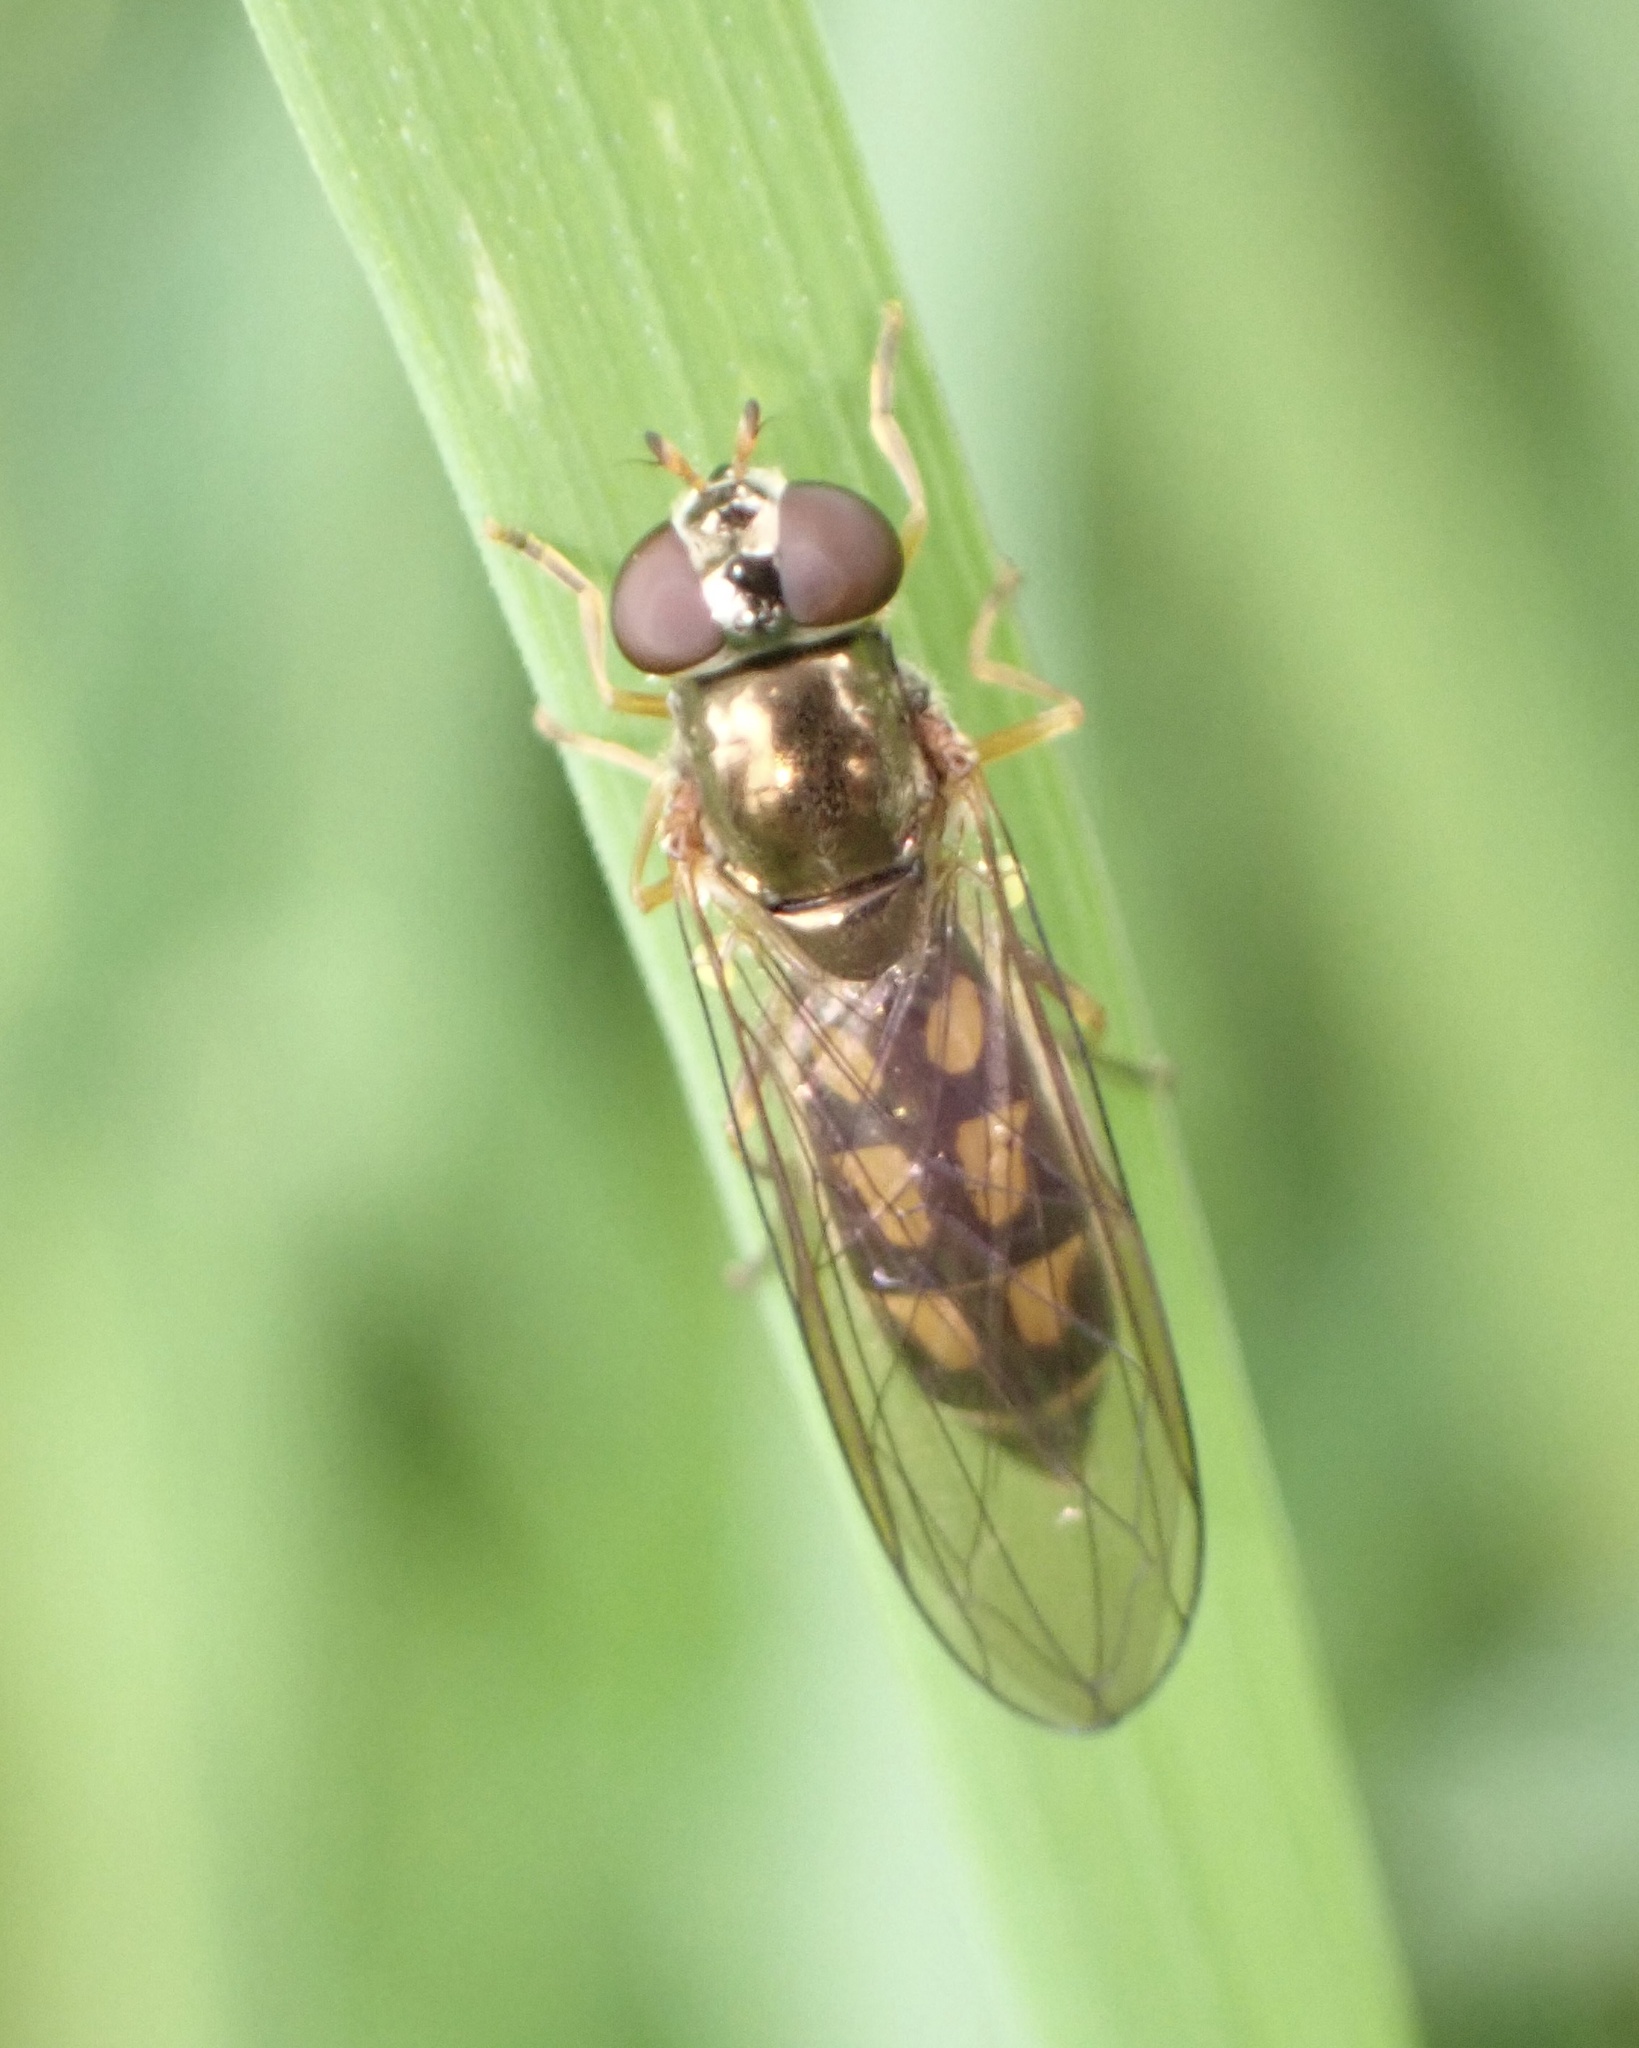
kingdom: Animalia
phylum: Arthropoda
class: Insecta
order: Diptera
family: Syrphidae
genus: Melanostoma
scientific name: Melanostoma scalare
